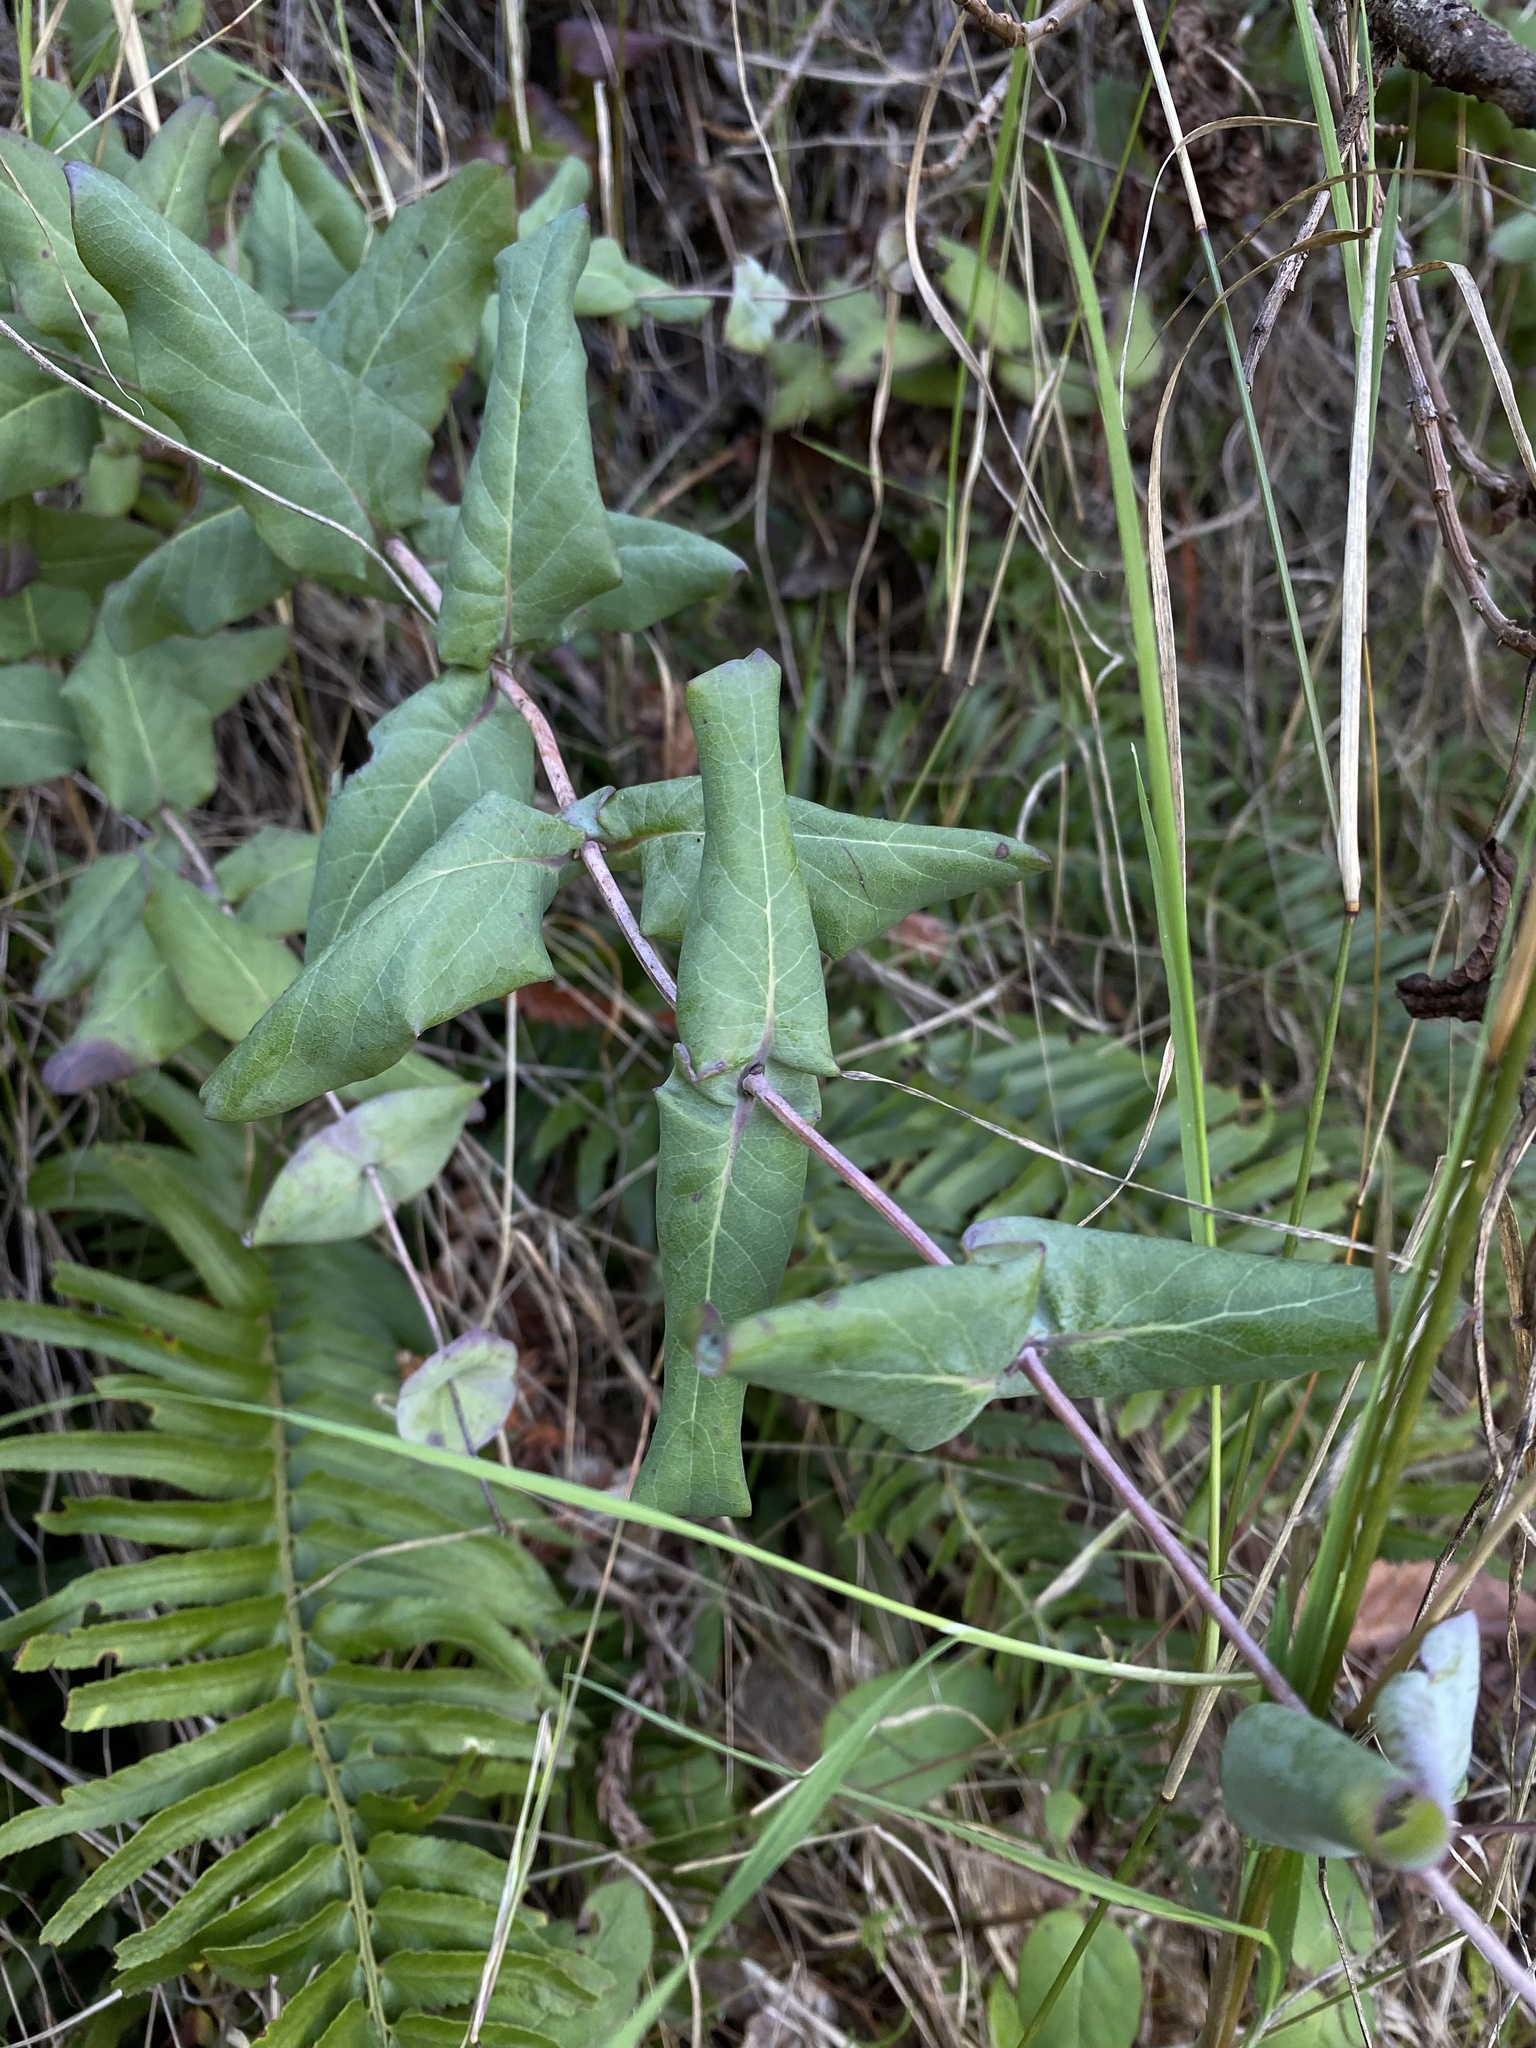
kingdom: Plantae
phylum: Tracheophyta
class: Magnoliopsida
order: Dipsacales
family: Caprifoliaceae
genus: Lonicera
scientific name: Lonicera hispidula
